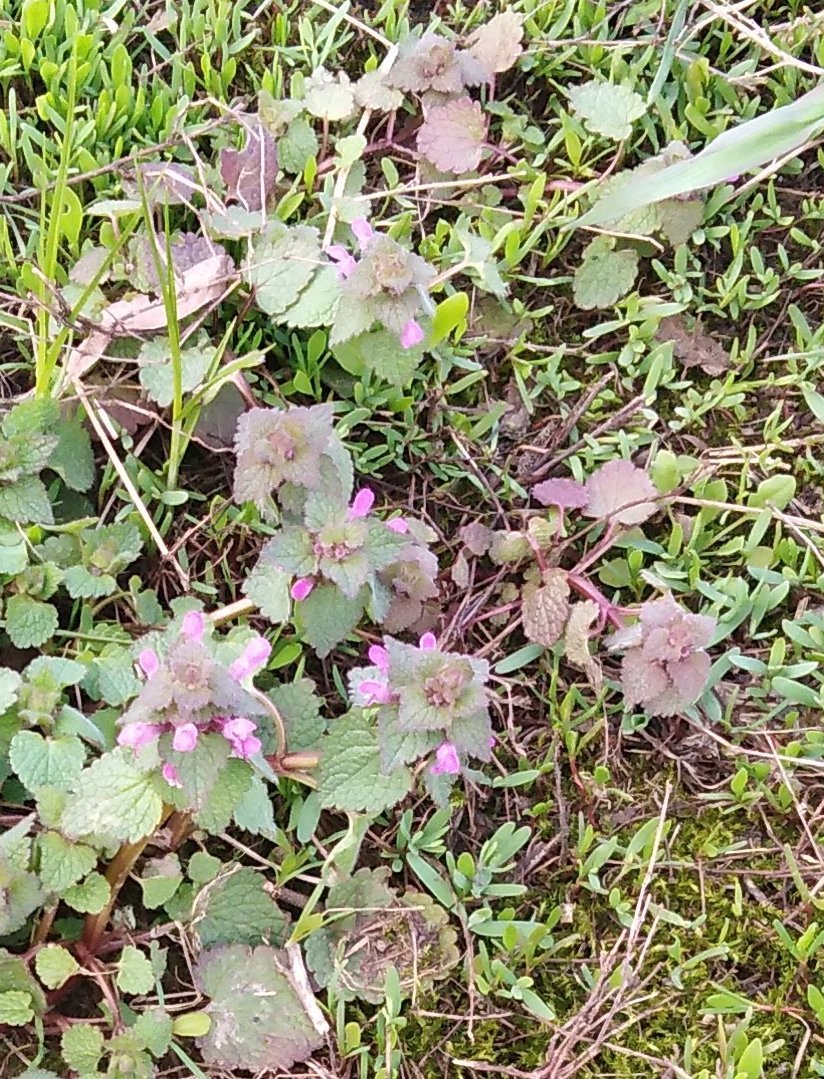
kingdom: Plantae
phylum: Tracheophyta
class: Magnoliopsida
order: Lamiales
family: Lamiaceae
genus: Lamium
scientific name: Lamium purpureum
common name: Red dead-nettle
